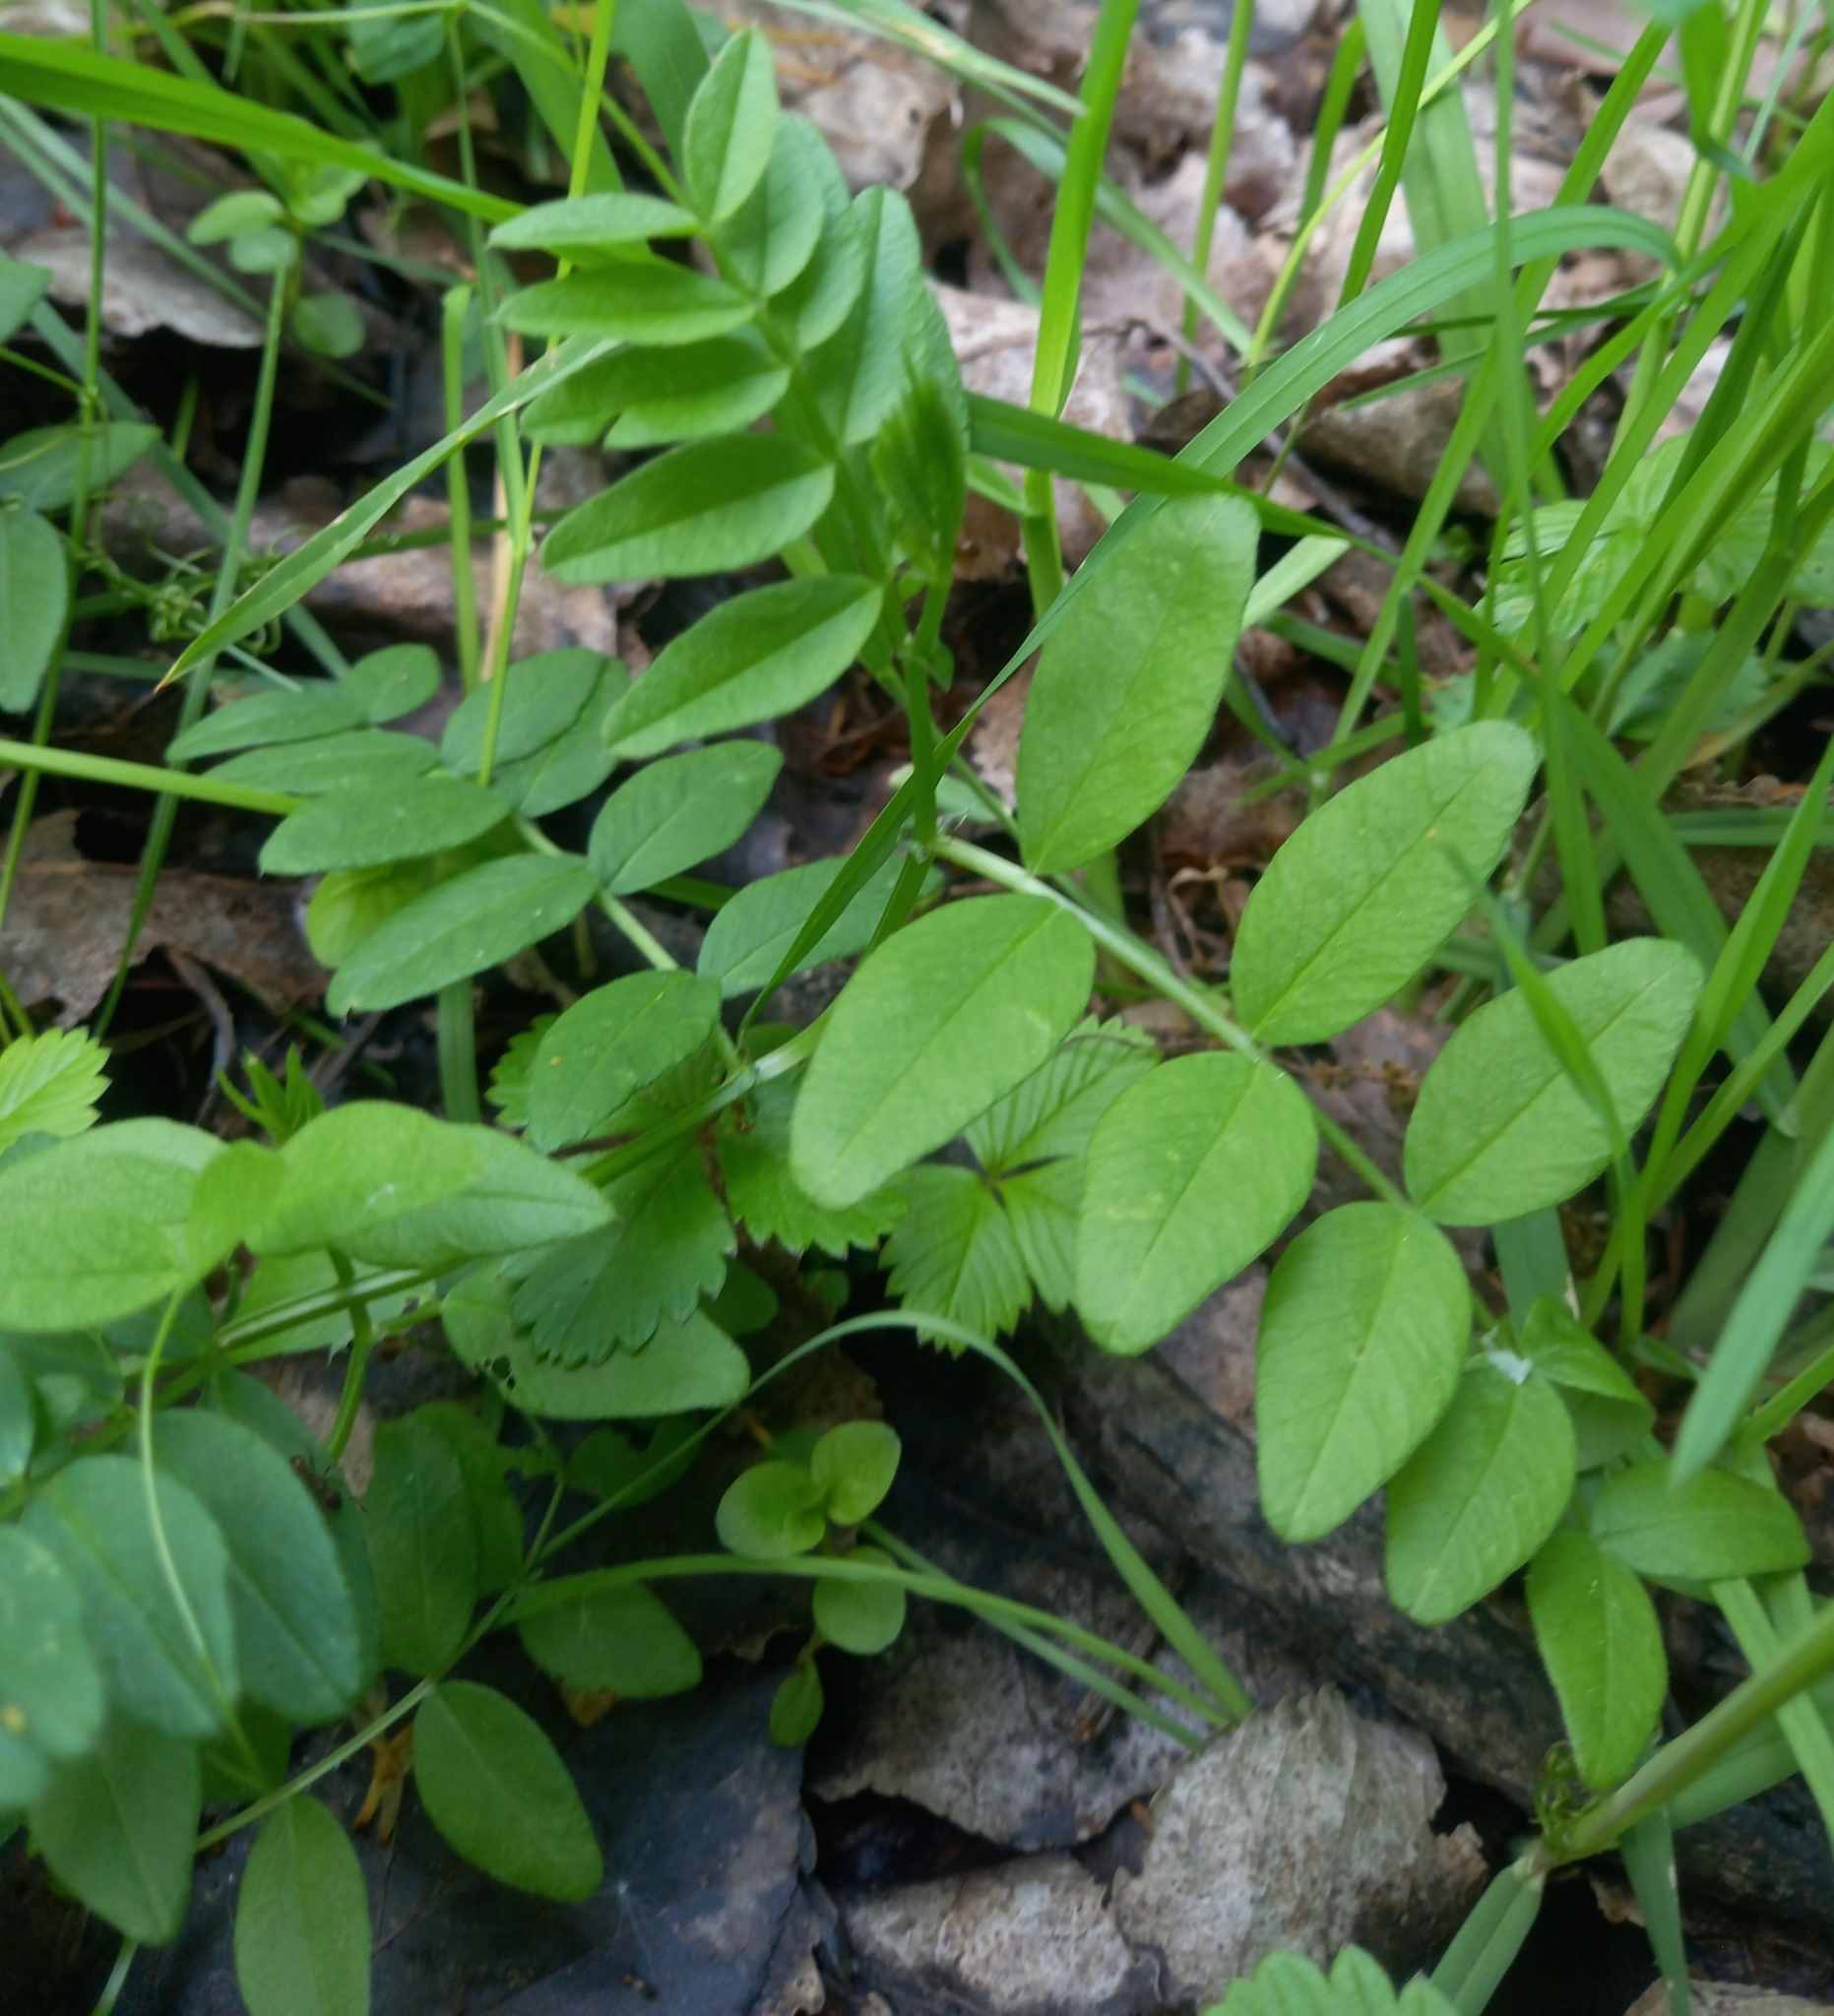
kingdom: Plantae
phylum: Tracheophyta
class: Magnoliopsida
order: Fabales
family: Fabaceae
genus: Vicia
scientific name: Vicia sepium
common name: Bush vetch
